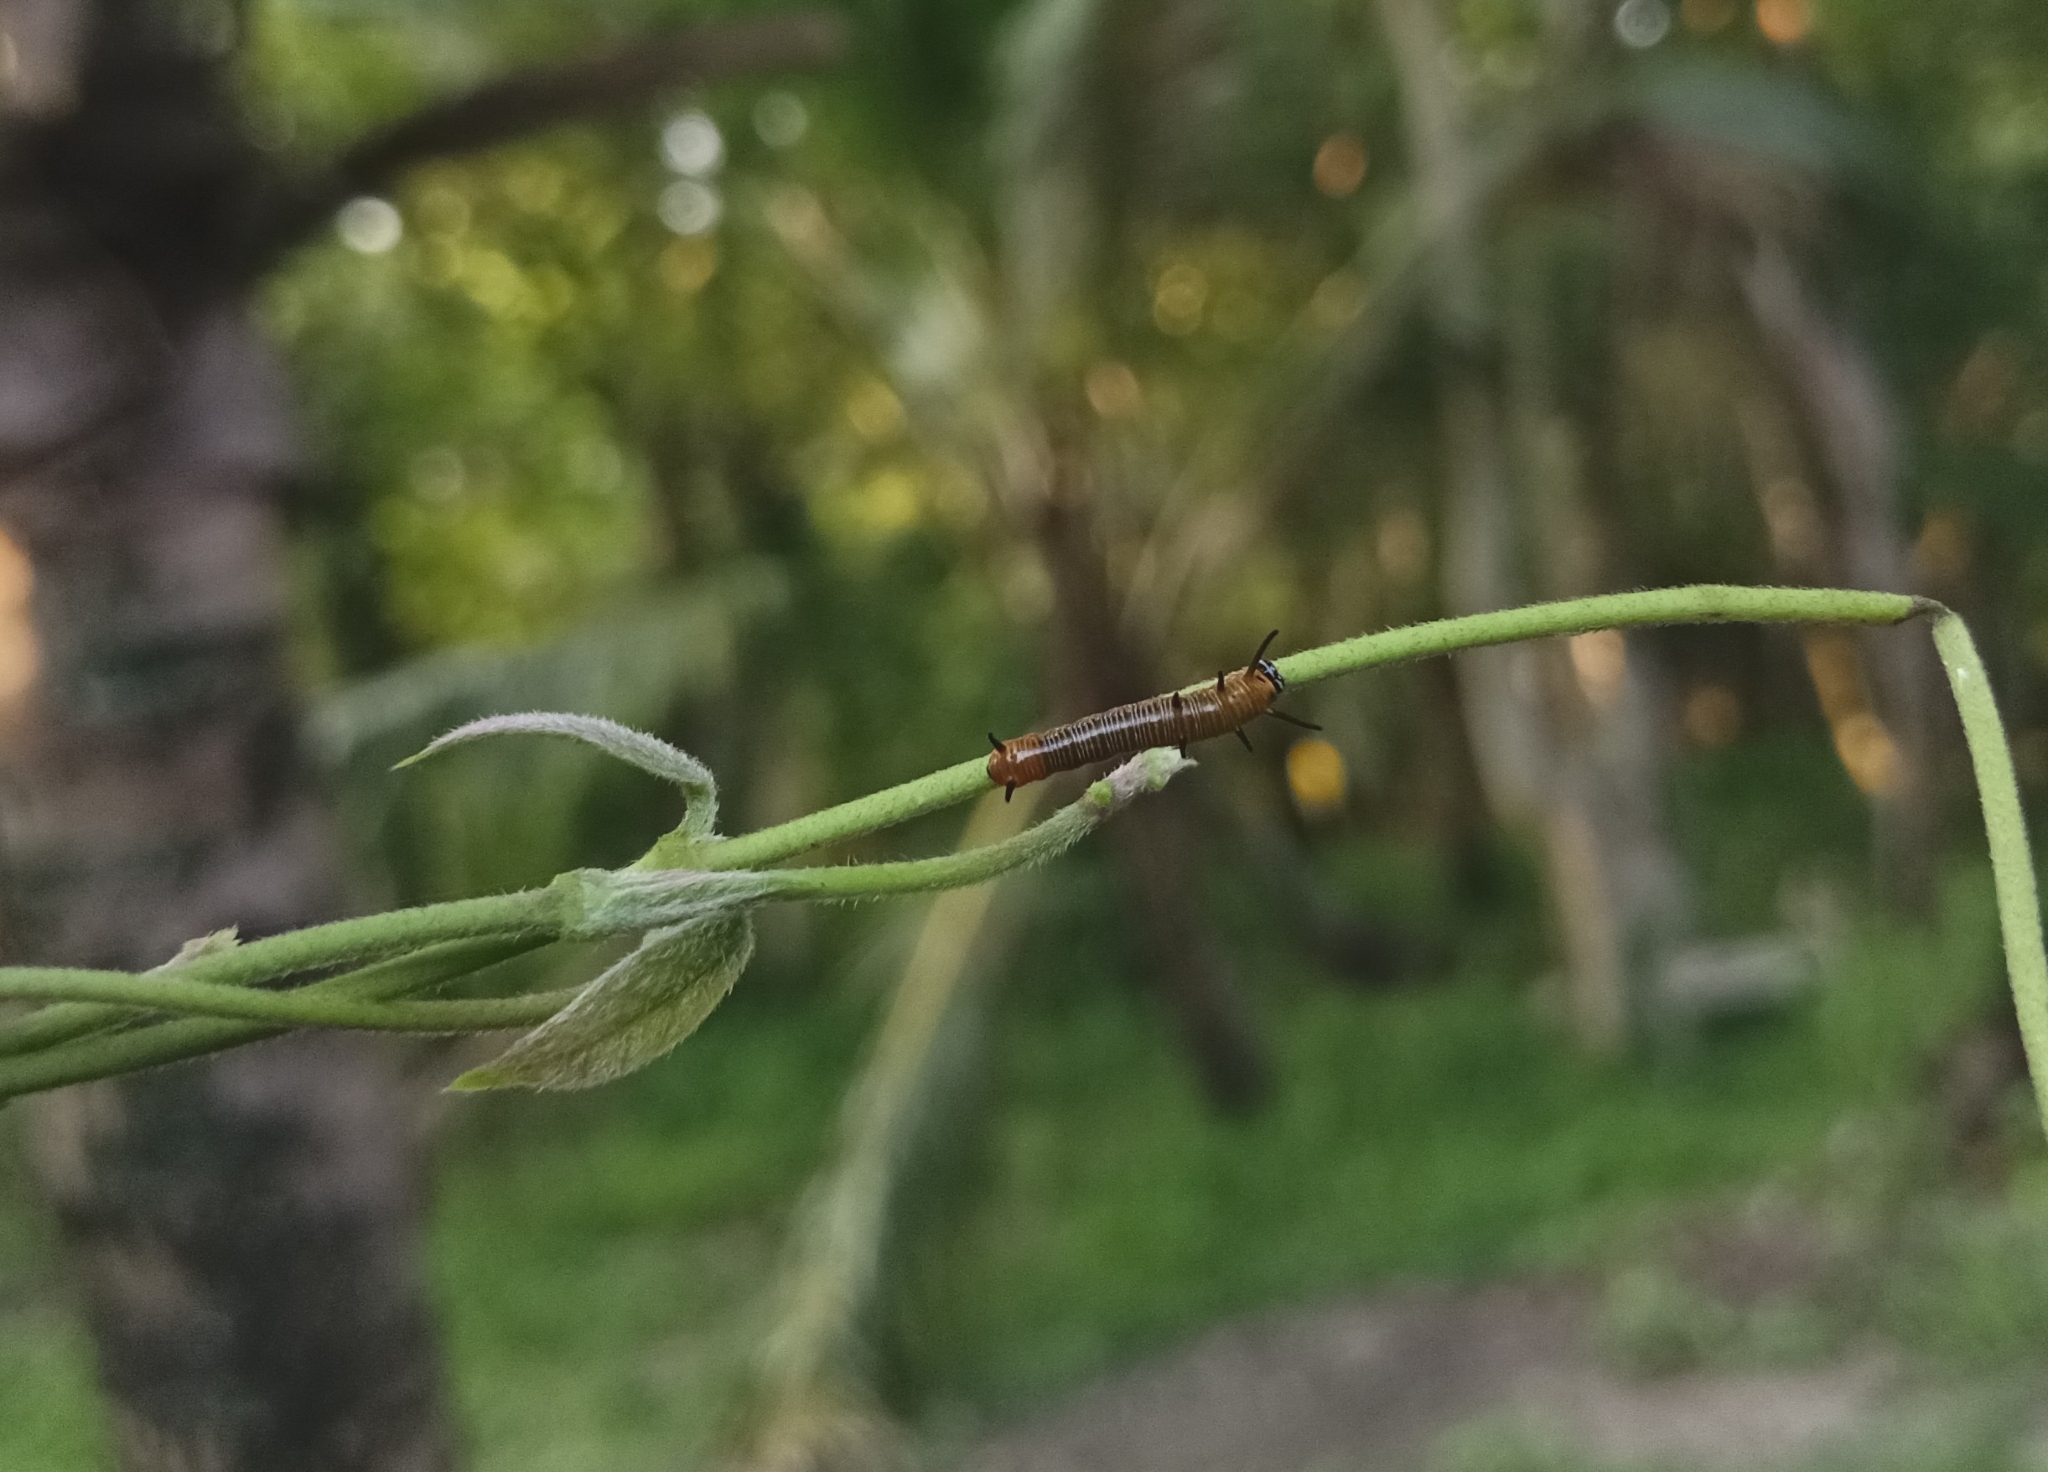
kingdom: Animalia
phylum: Arthropoda
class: Insecta
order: Lepidoptera
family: Nymphalidae
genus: Euploea
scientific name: Euploea core
